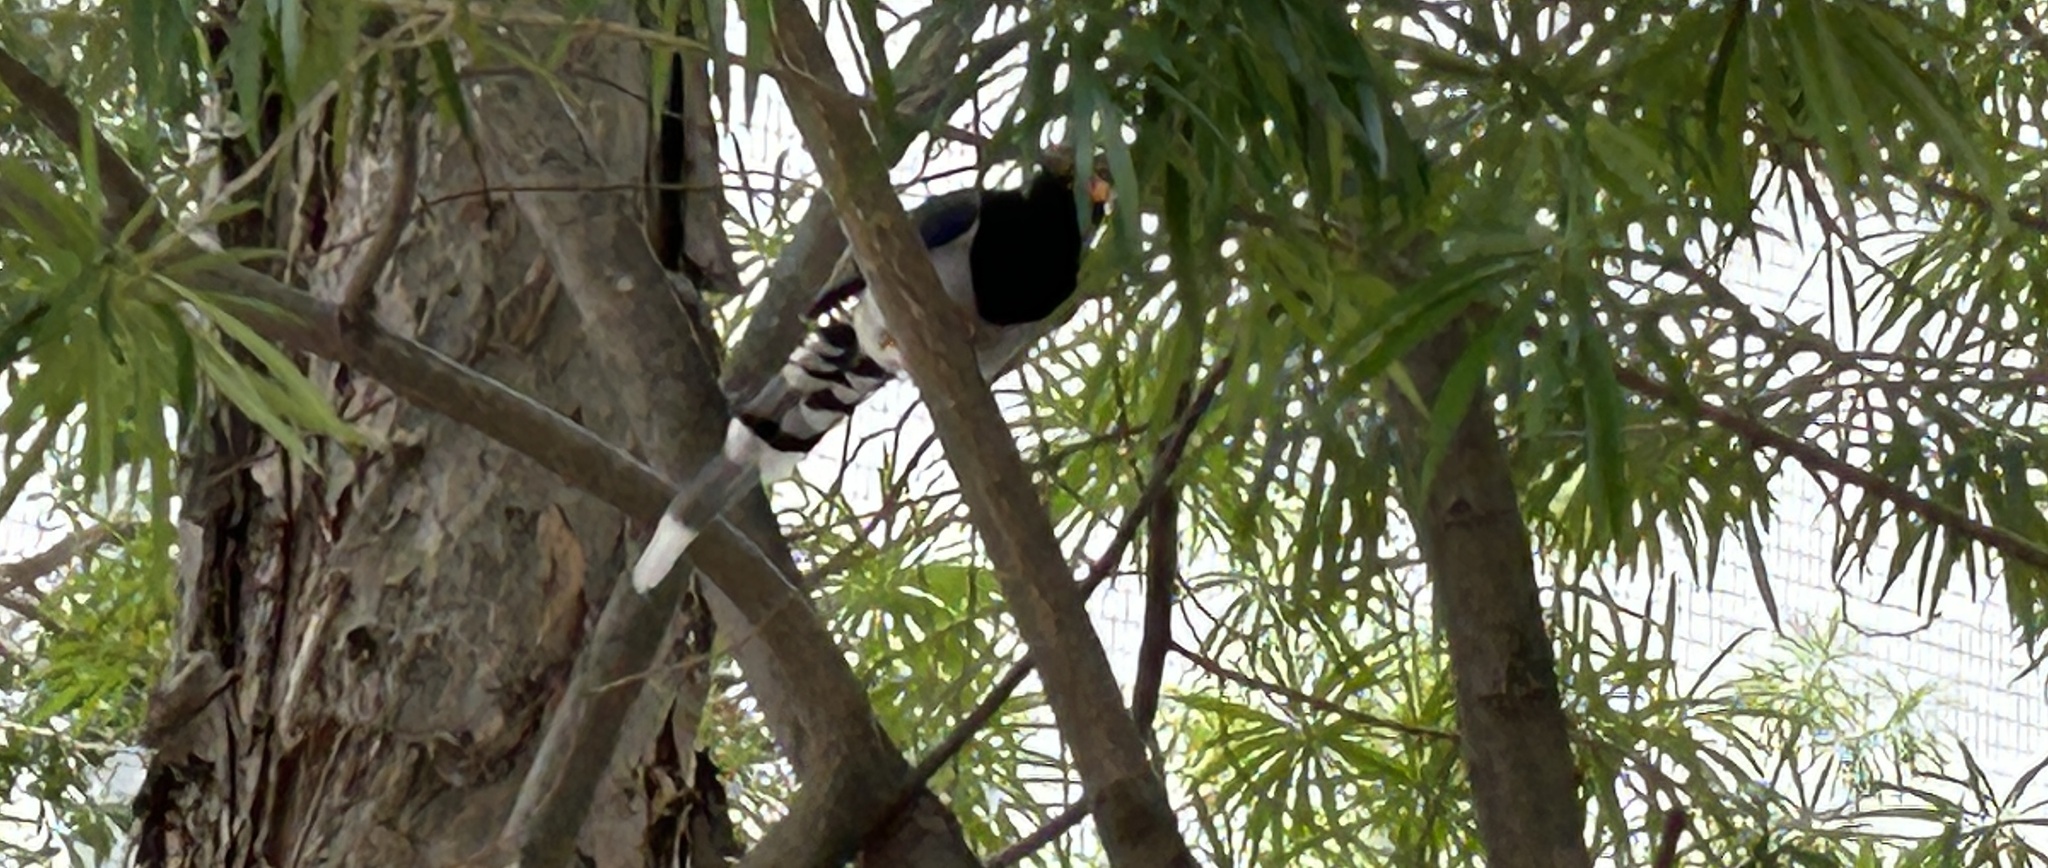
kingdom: Animalia
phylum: Chordata
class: Aves
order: Passeriformes
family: Corvidae
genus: Urocissa
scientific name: Urocissa erythroryncha
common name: Red-billed blue magpie
